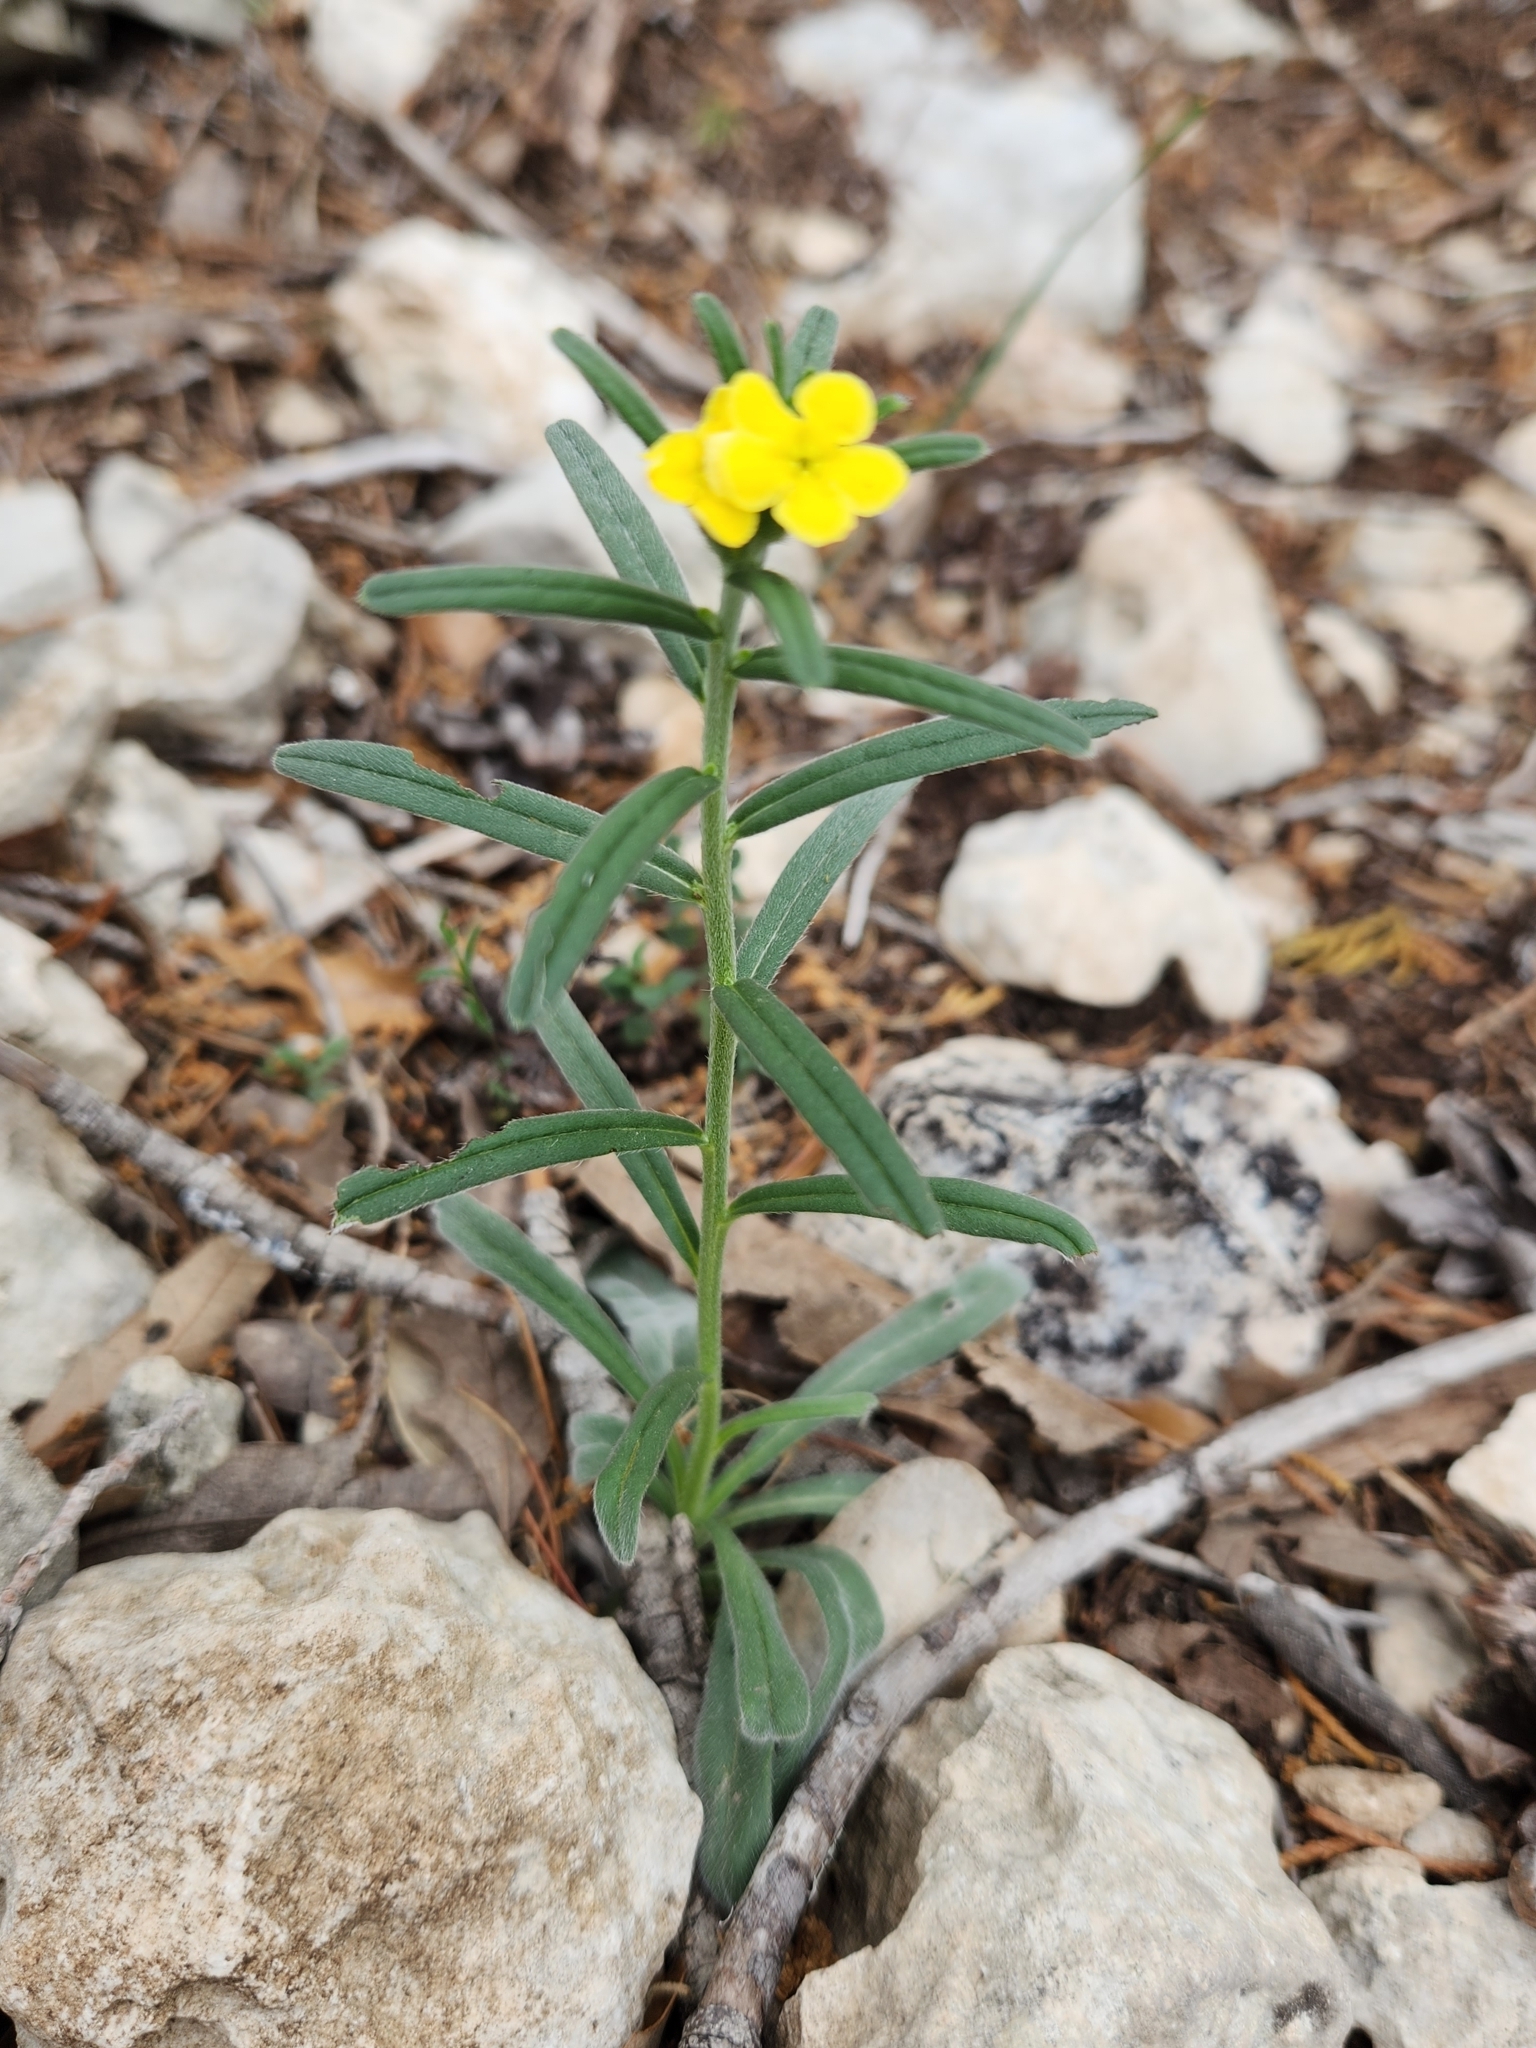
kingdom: Plantae
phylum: Tracheophyta
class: Magnoliopsida
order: Boraginales
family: Boraginaceae
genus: Lithospermum
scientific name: Lithospermum mirabile
